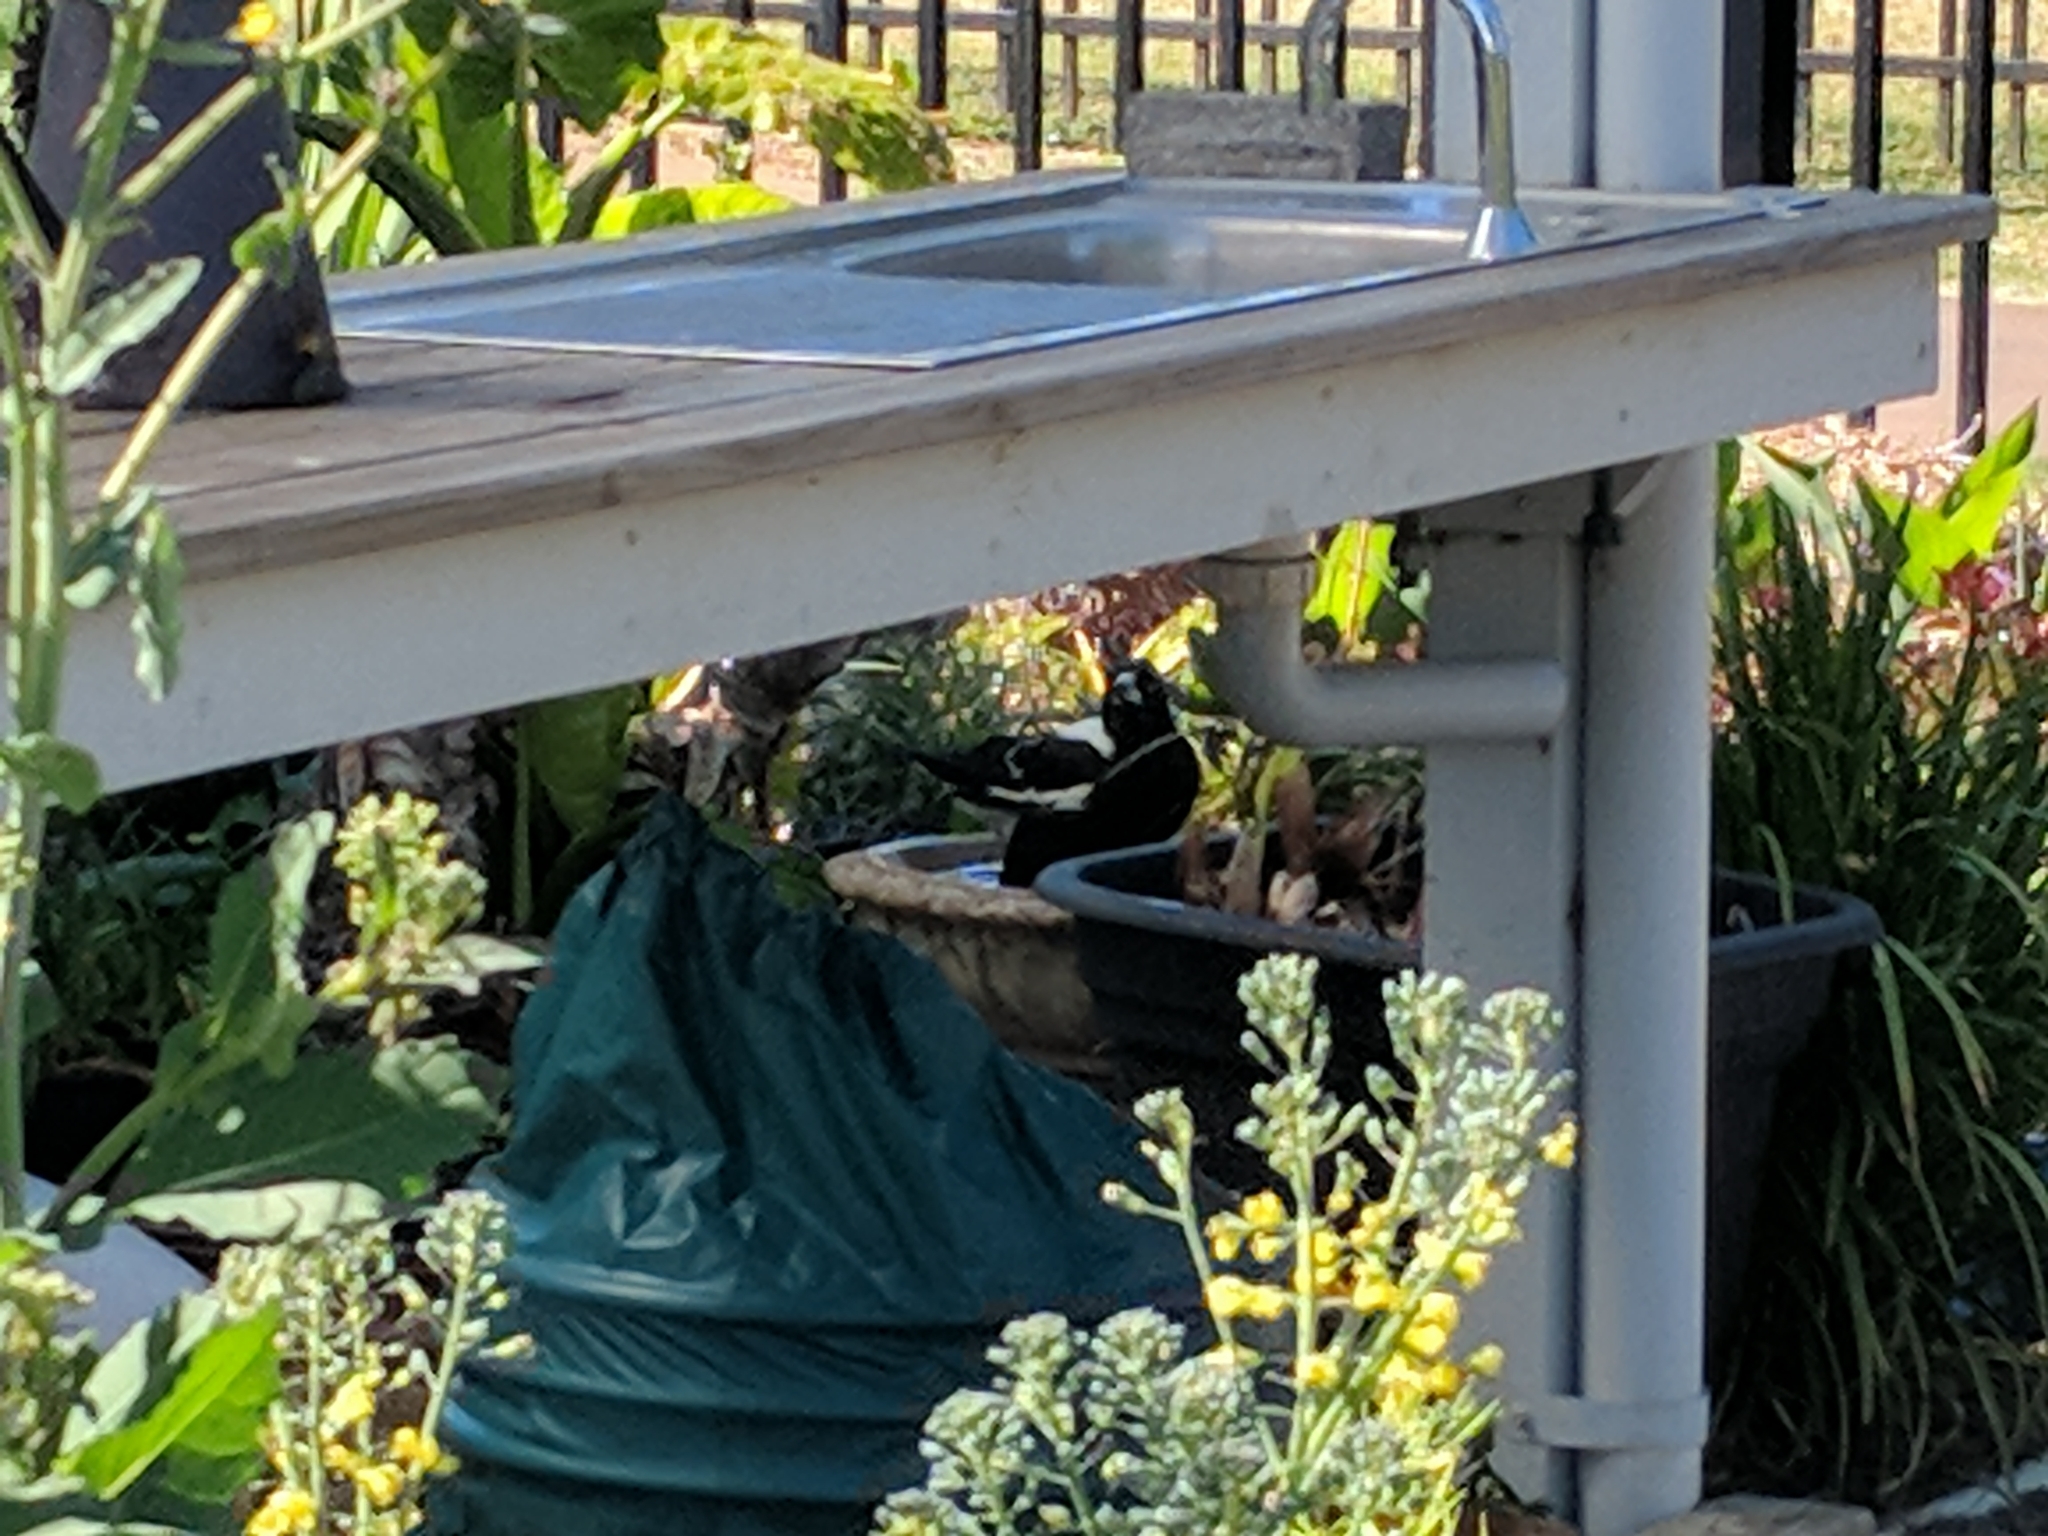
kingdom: Animalia
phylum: Chordata
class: Aves
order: Passeriformes
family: Cracticidae
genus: Gymnorhina
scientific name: Gymnorhina tibicen
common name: Australian magpie
